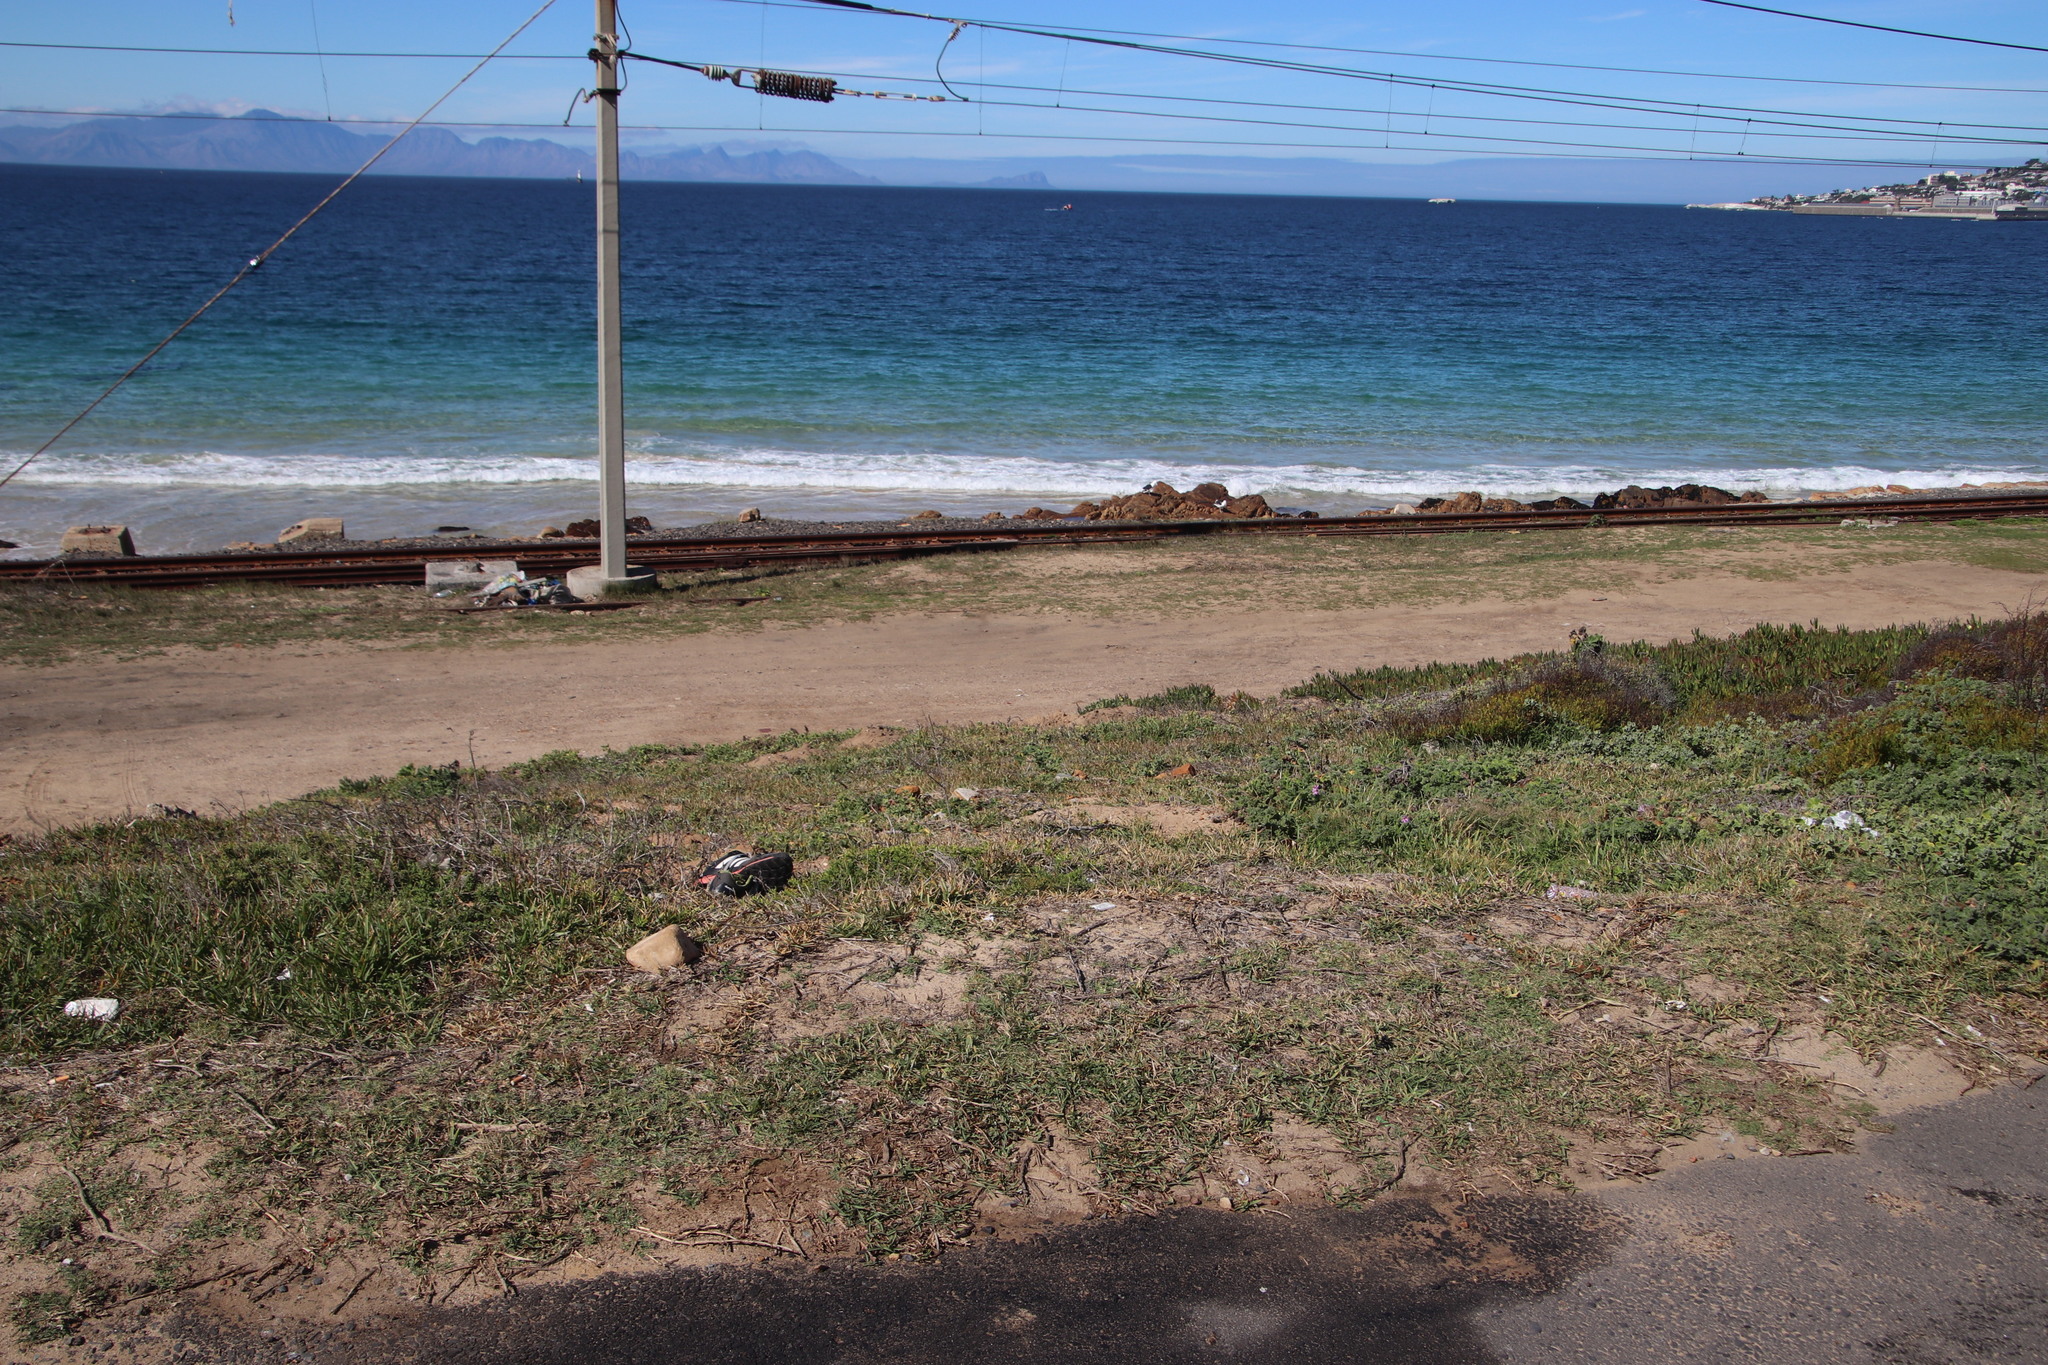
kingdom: Plantae
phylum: Tracheophyta
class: Liliopsida
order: Poales
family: Poaceae
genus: Stenotaphrum
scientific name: Stenotaphrum secundatum
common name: St. augustine grass
